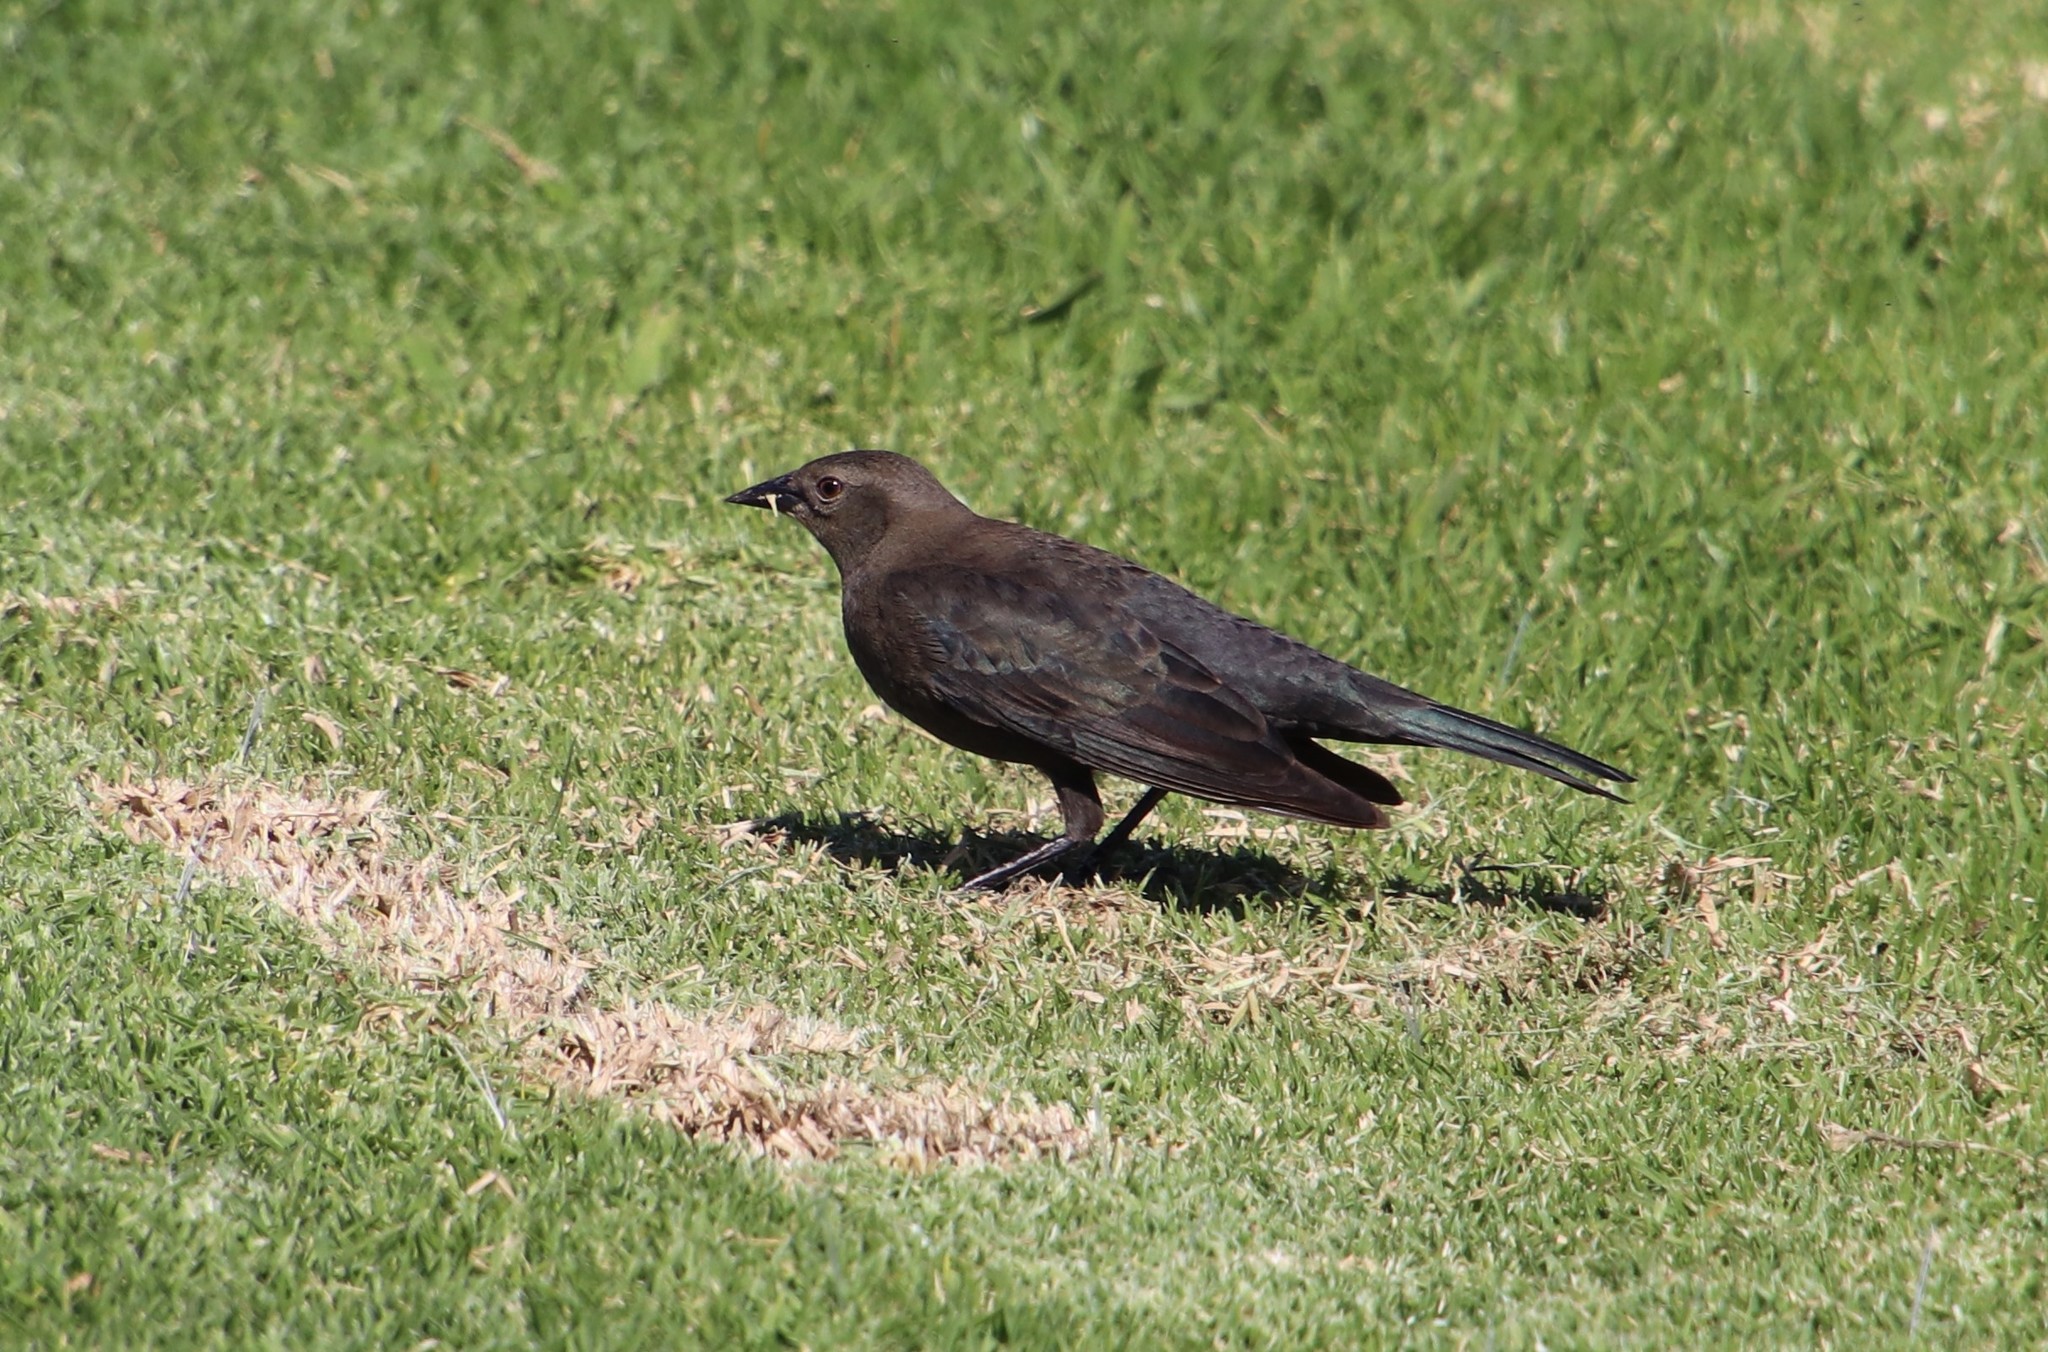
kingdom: Animalia
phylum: Chordata
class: Aves
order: Passeriformes
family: Icteridae
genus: Euphagus
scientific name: Euphagus cyanocephalus
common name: Brewer's blackbird
